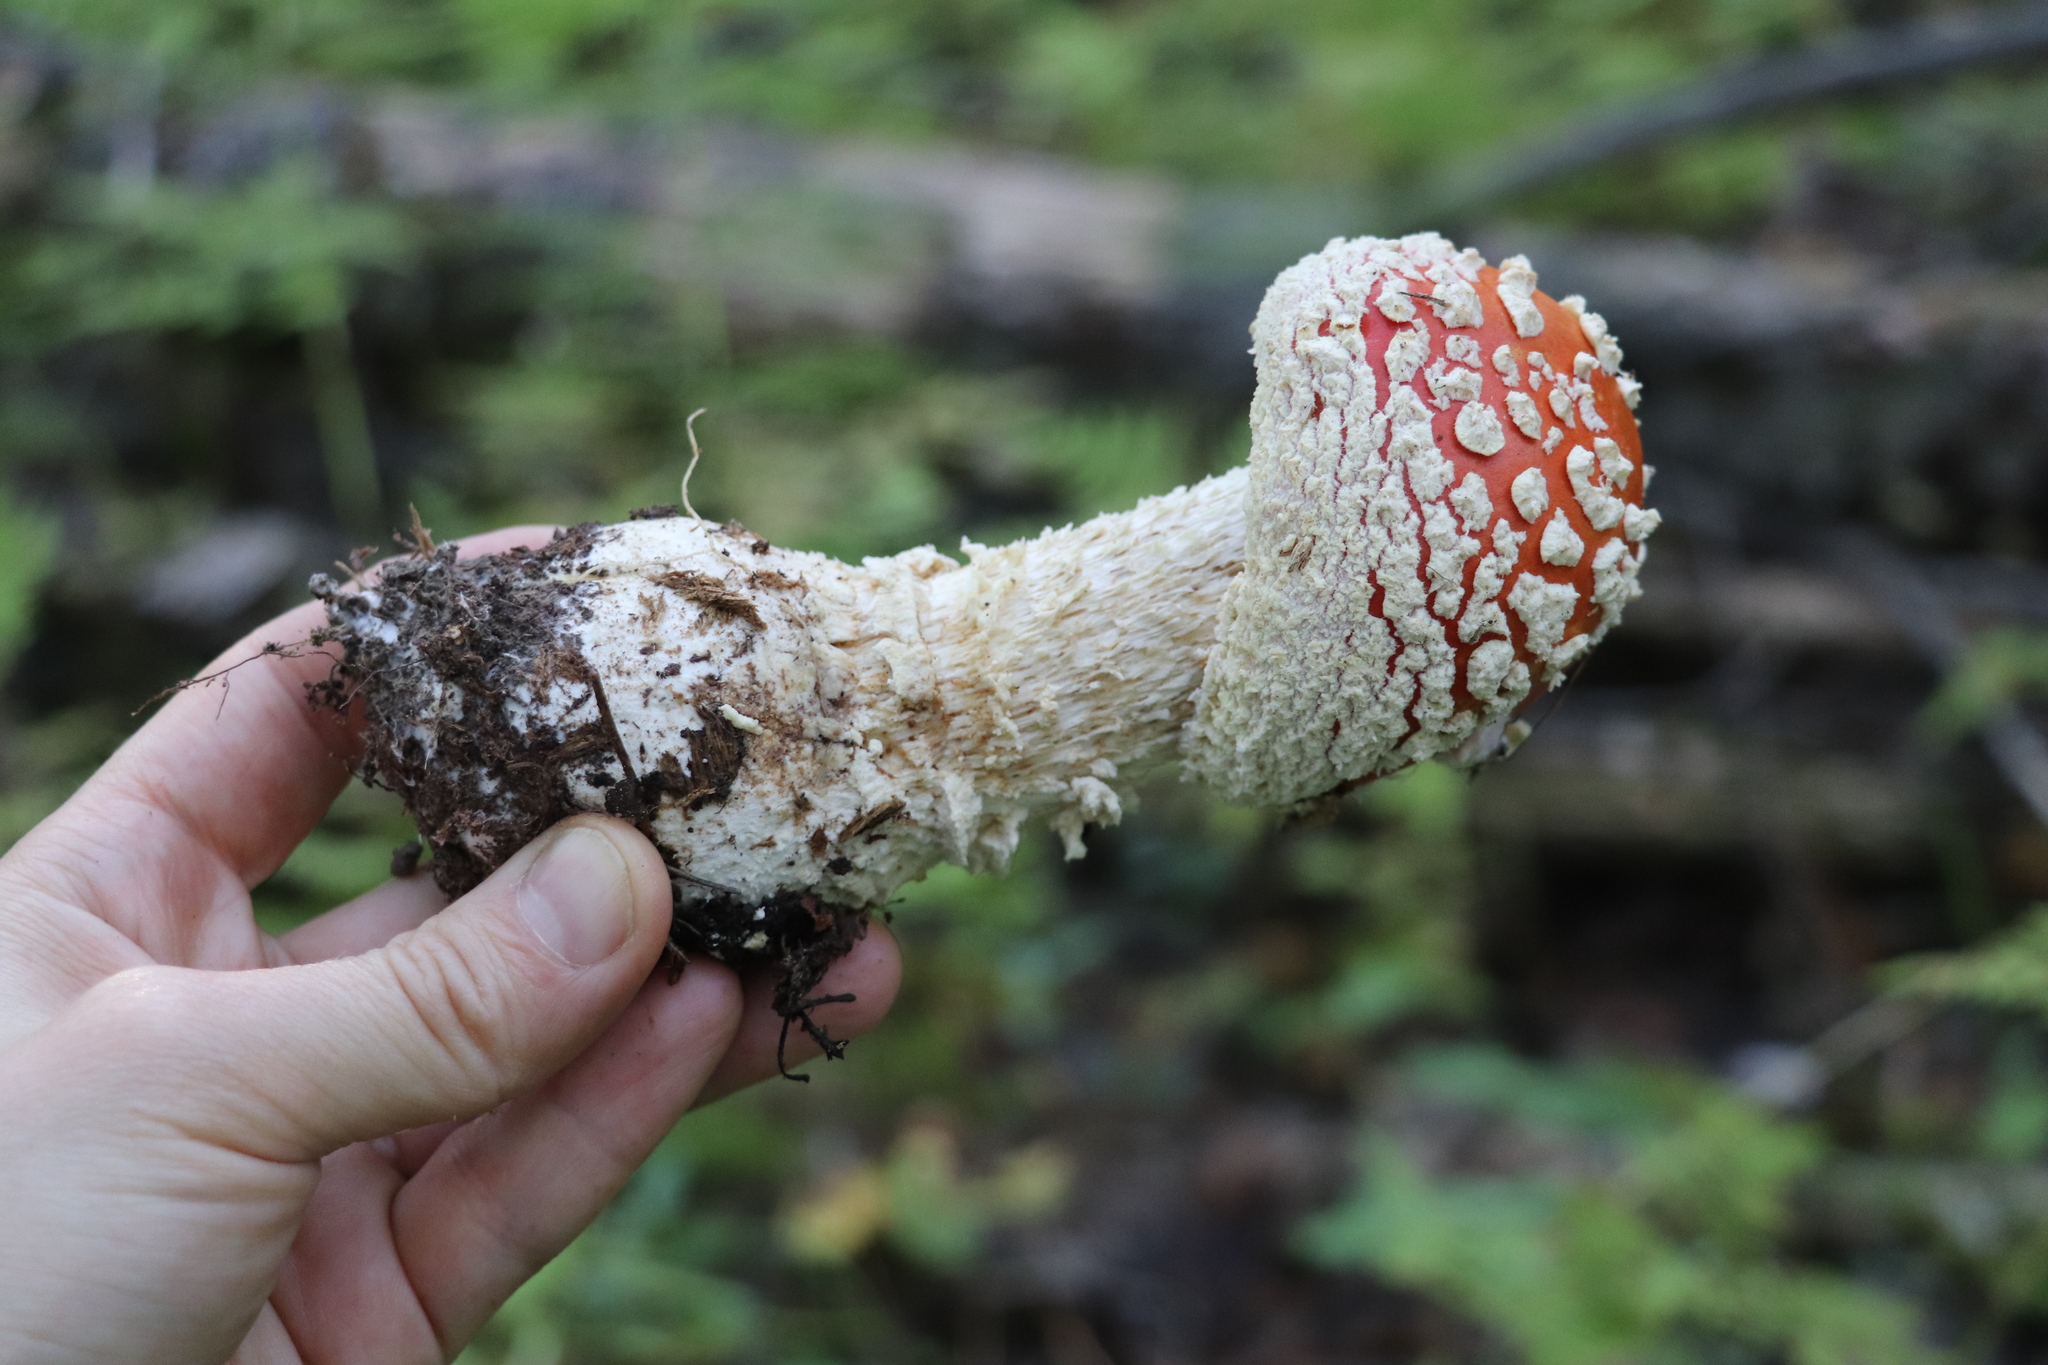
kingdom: Fungi
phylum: Basidiomycota
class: Agaricomycetes
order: Agaricales
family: Amanitaceae
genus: Amanita
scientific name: Amanita muscaria
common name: Fly agaric
